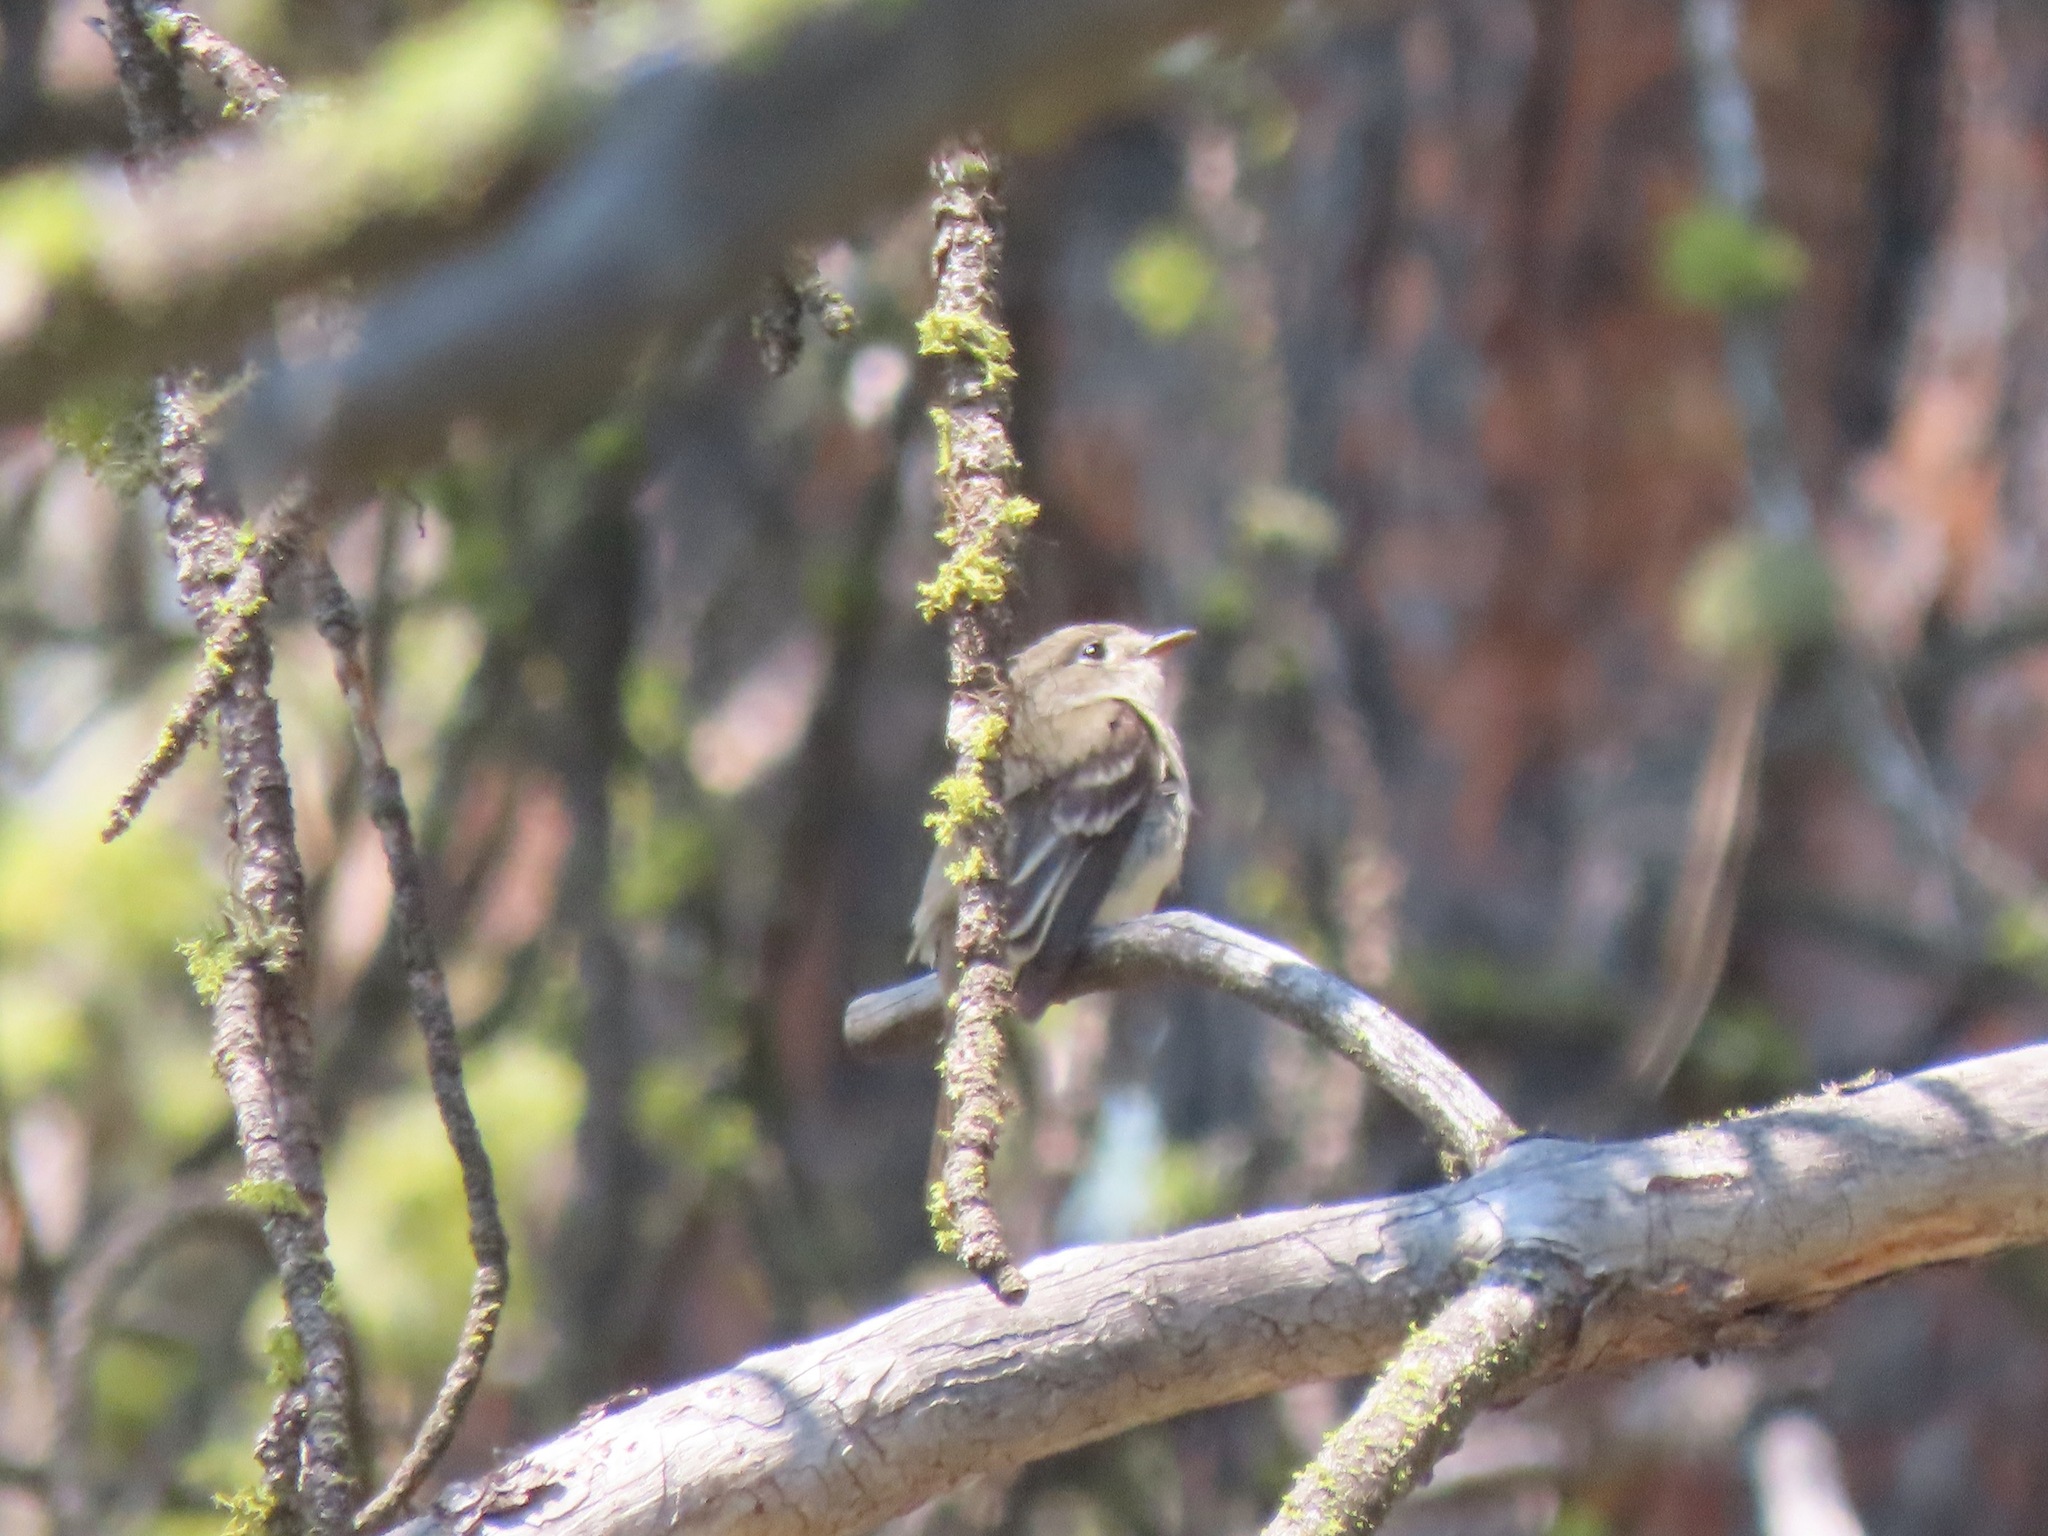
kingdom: Animalia
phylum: Chordata
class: Aves
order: Passeriformes
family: Tyrannidae
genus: Empidonax
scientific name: Empidonax minimus
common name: Least flycatcher
